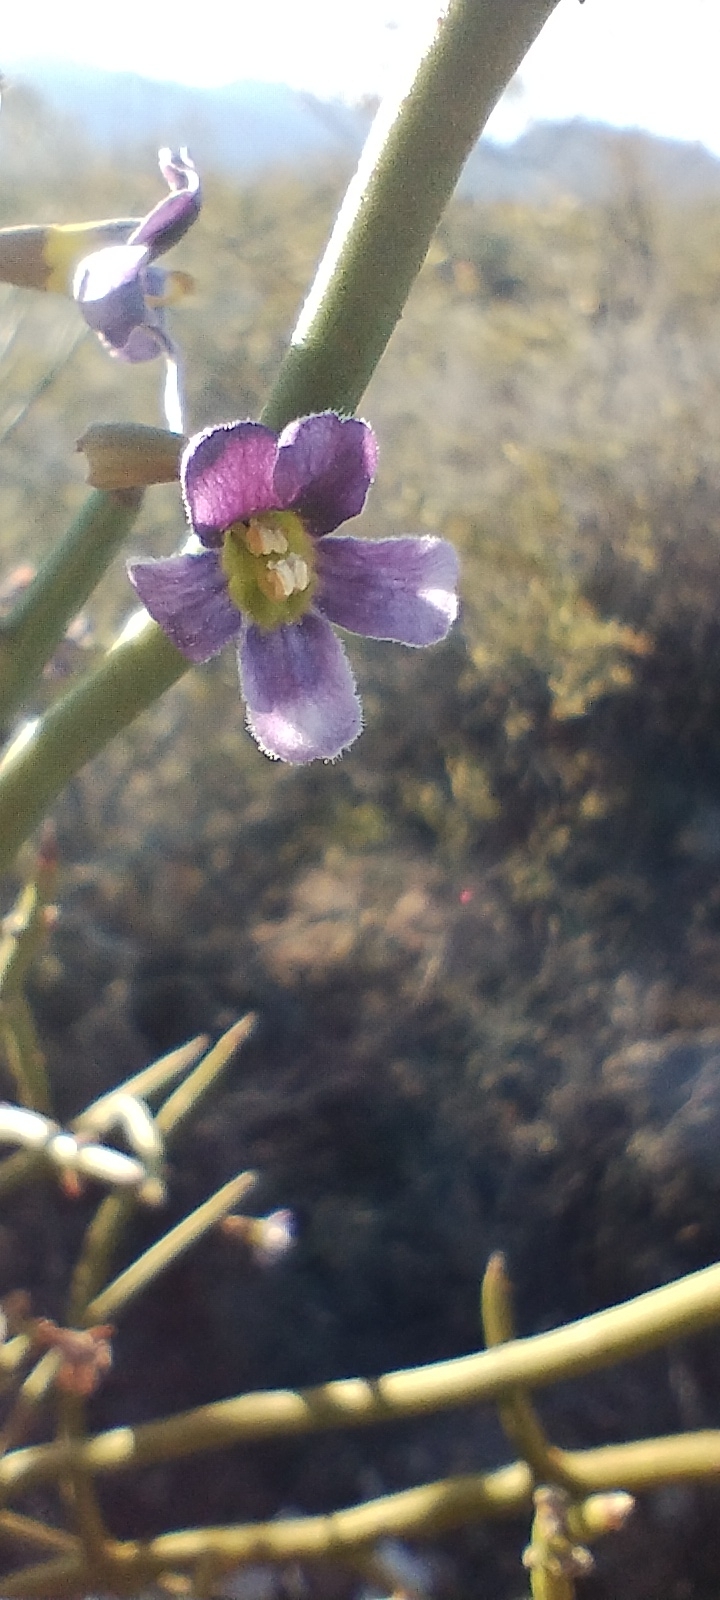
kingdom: Plantae
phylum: Tracheophyta
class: Magnoliopsida
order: Lamiales
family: Plantaginaceae
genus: Monttea
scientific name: Monttea aphylla
